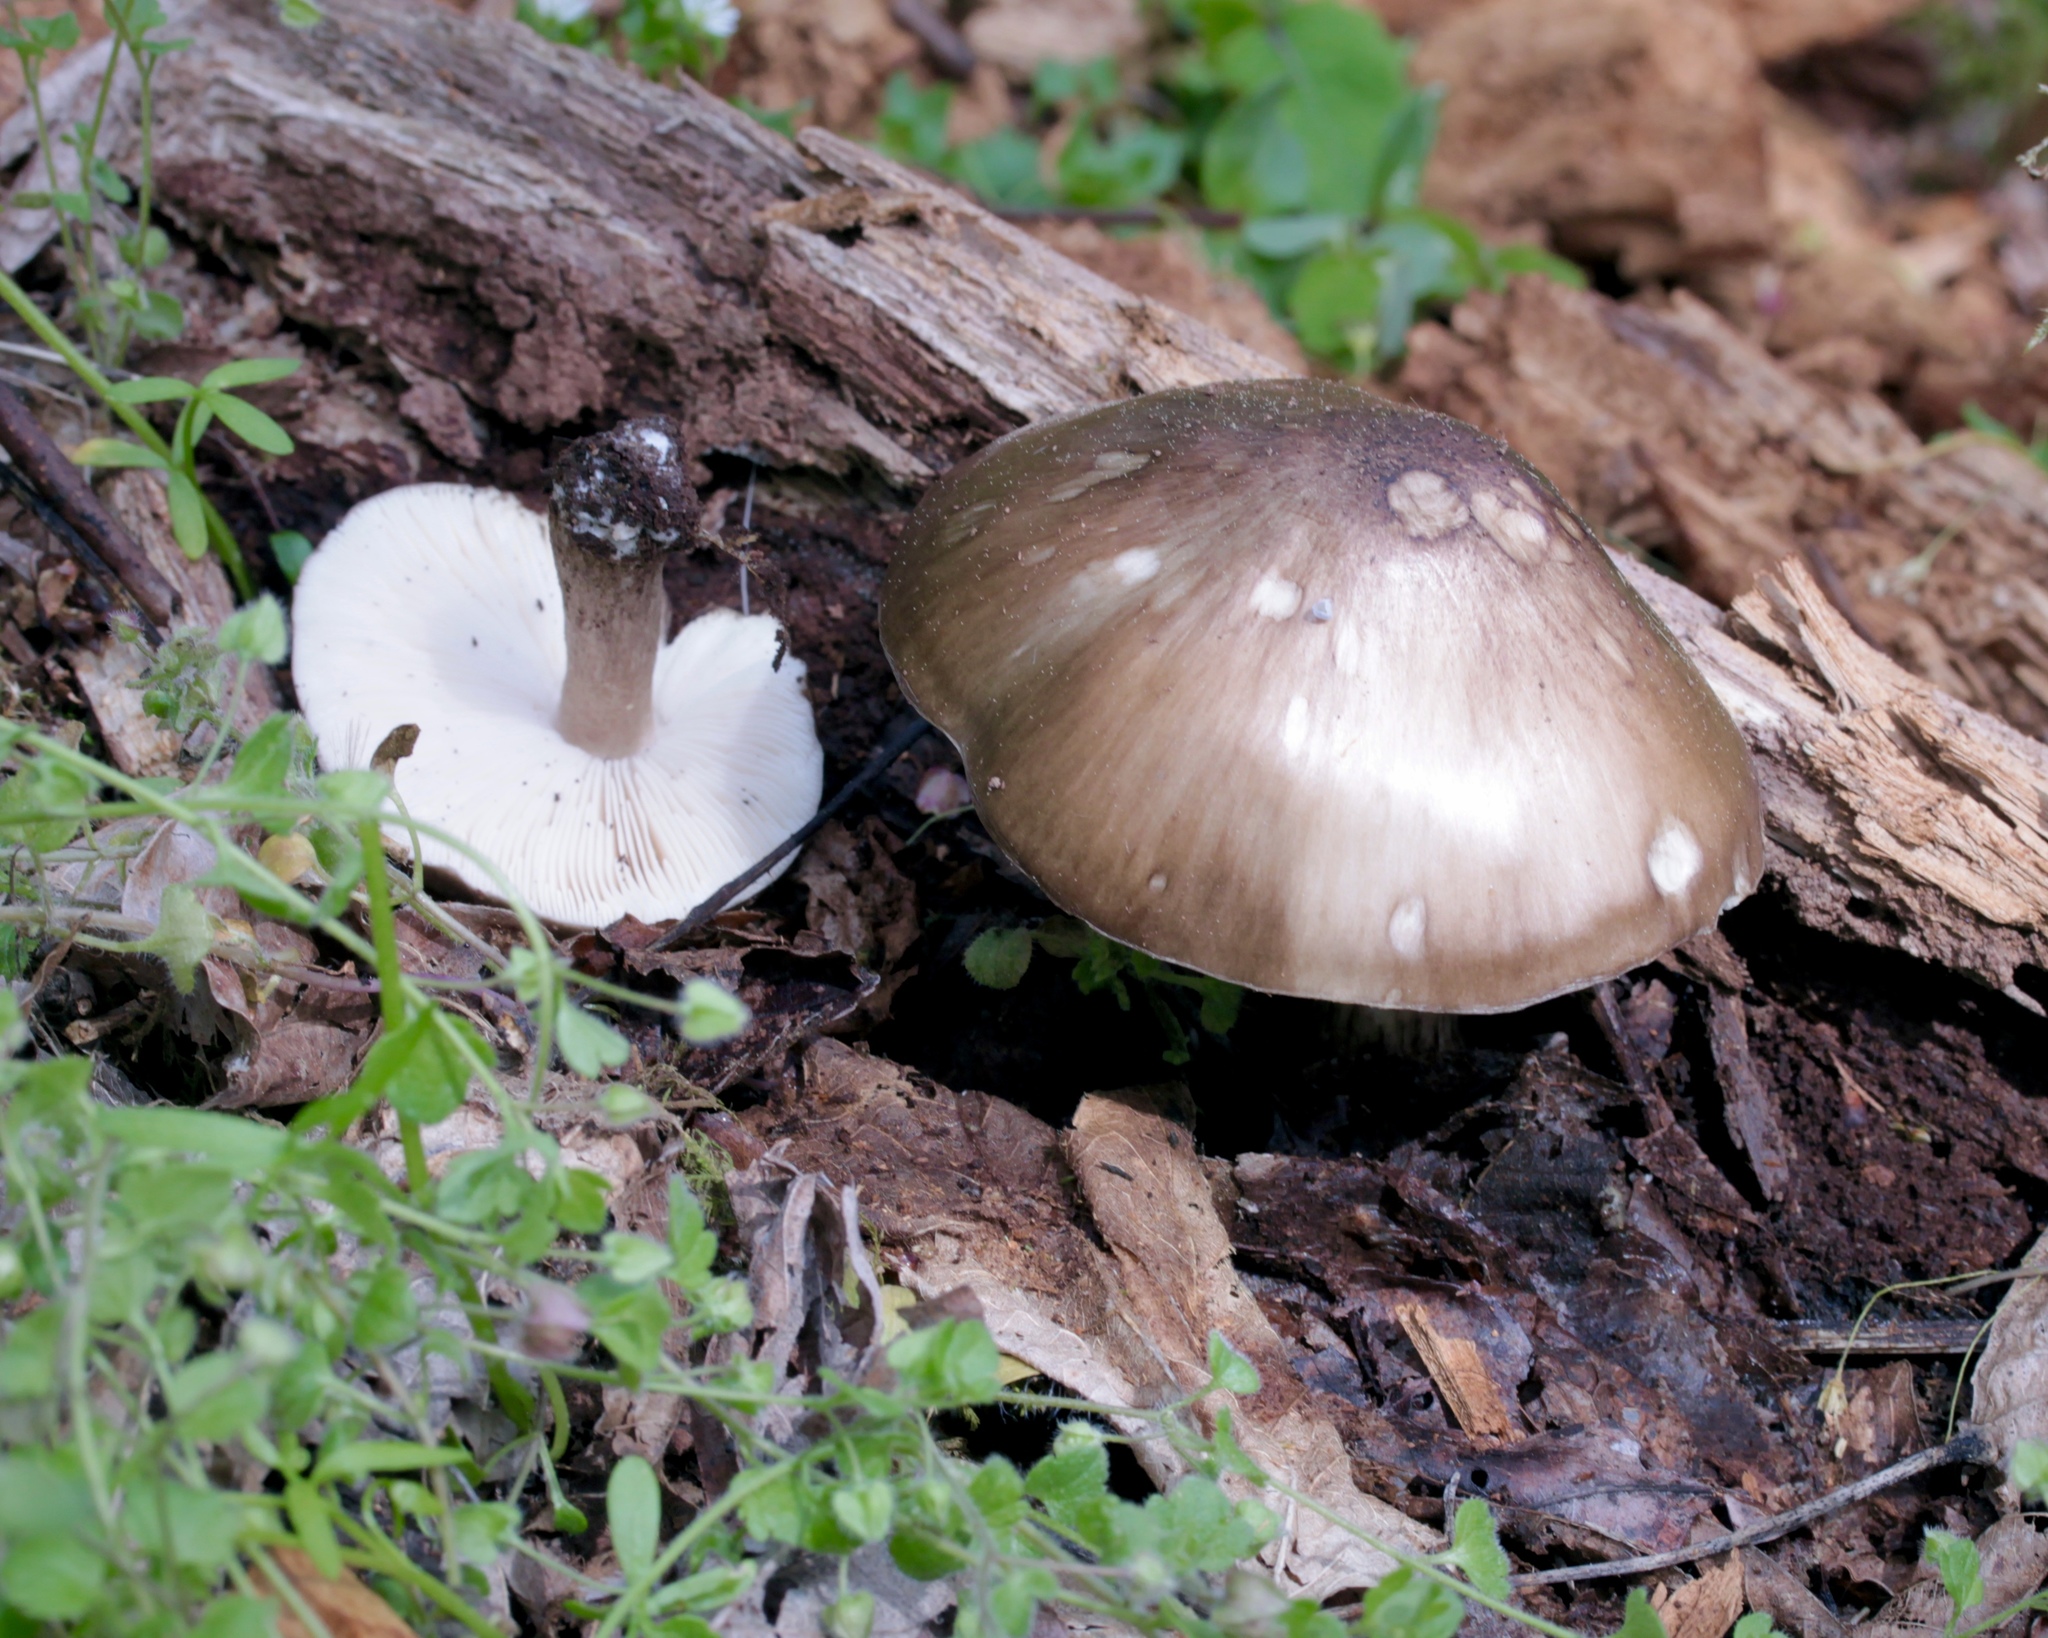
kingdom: Fungi
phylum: Basidiomycota
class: Agaricomycetes
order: Agaricales
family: Pluteaceae
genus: Pluteus
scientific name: Pluteus cervinus
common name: Deer shield
